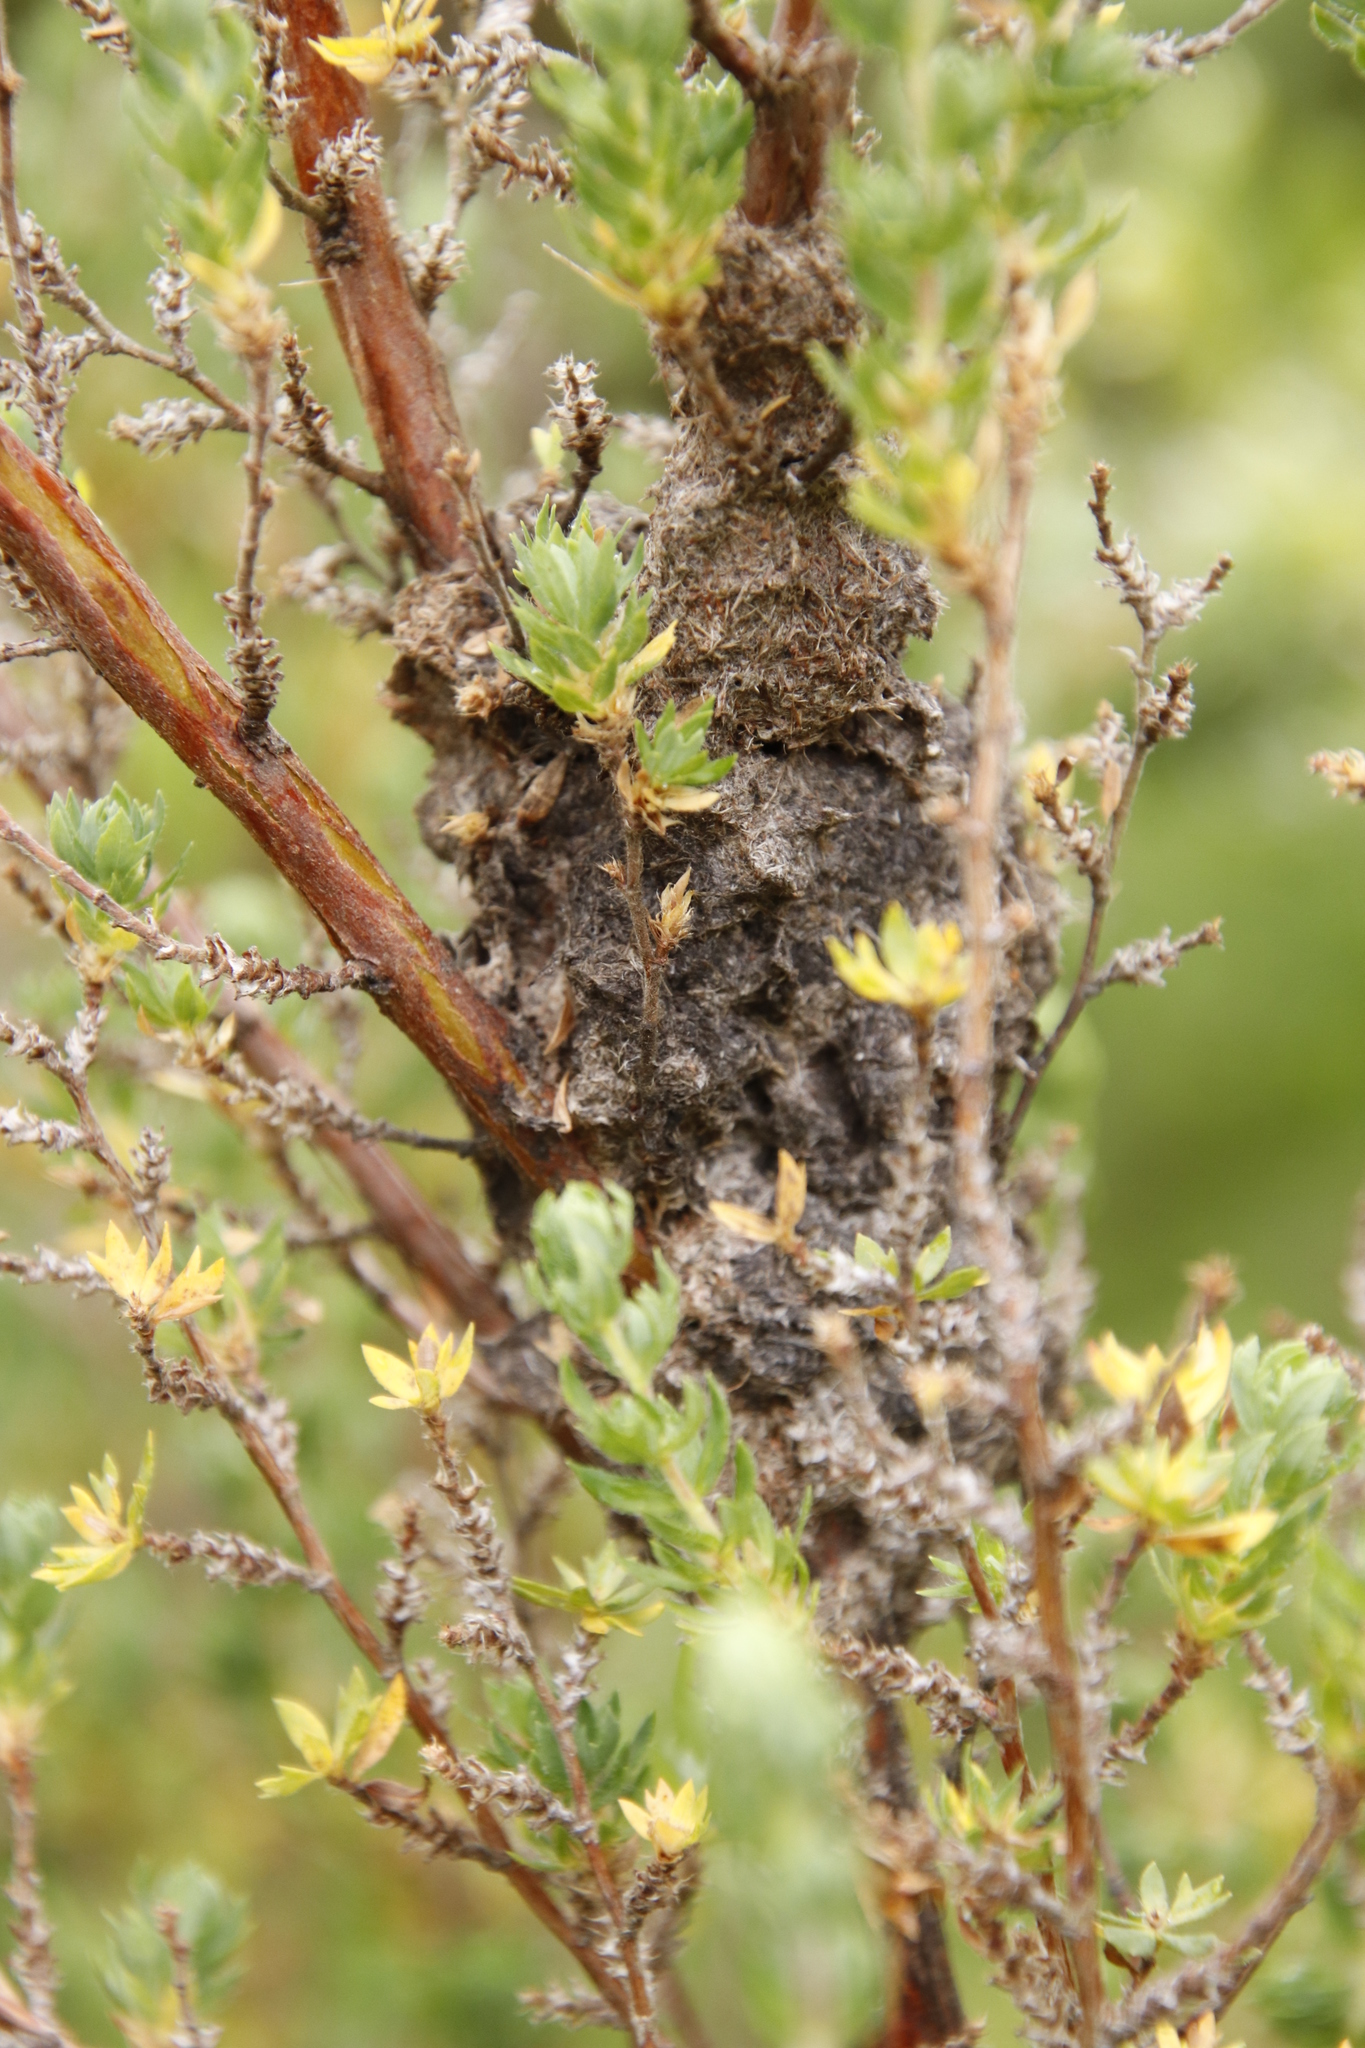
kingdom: Animalia
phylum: Arthropoda
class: Insecta
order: Hymenoptera
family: Formicidae
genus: Crematogaster
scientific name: Crematogaster peringueyi
